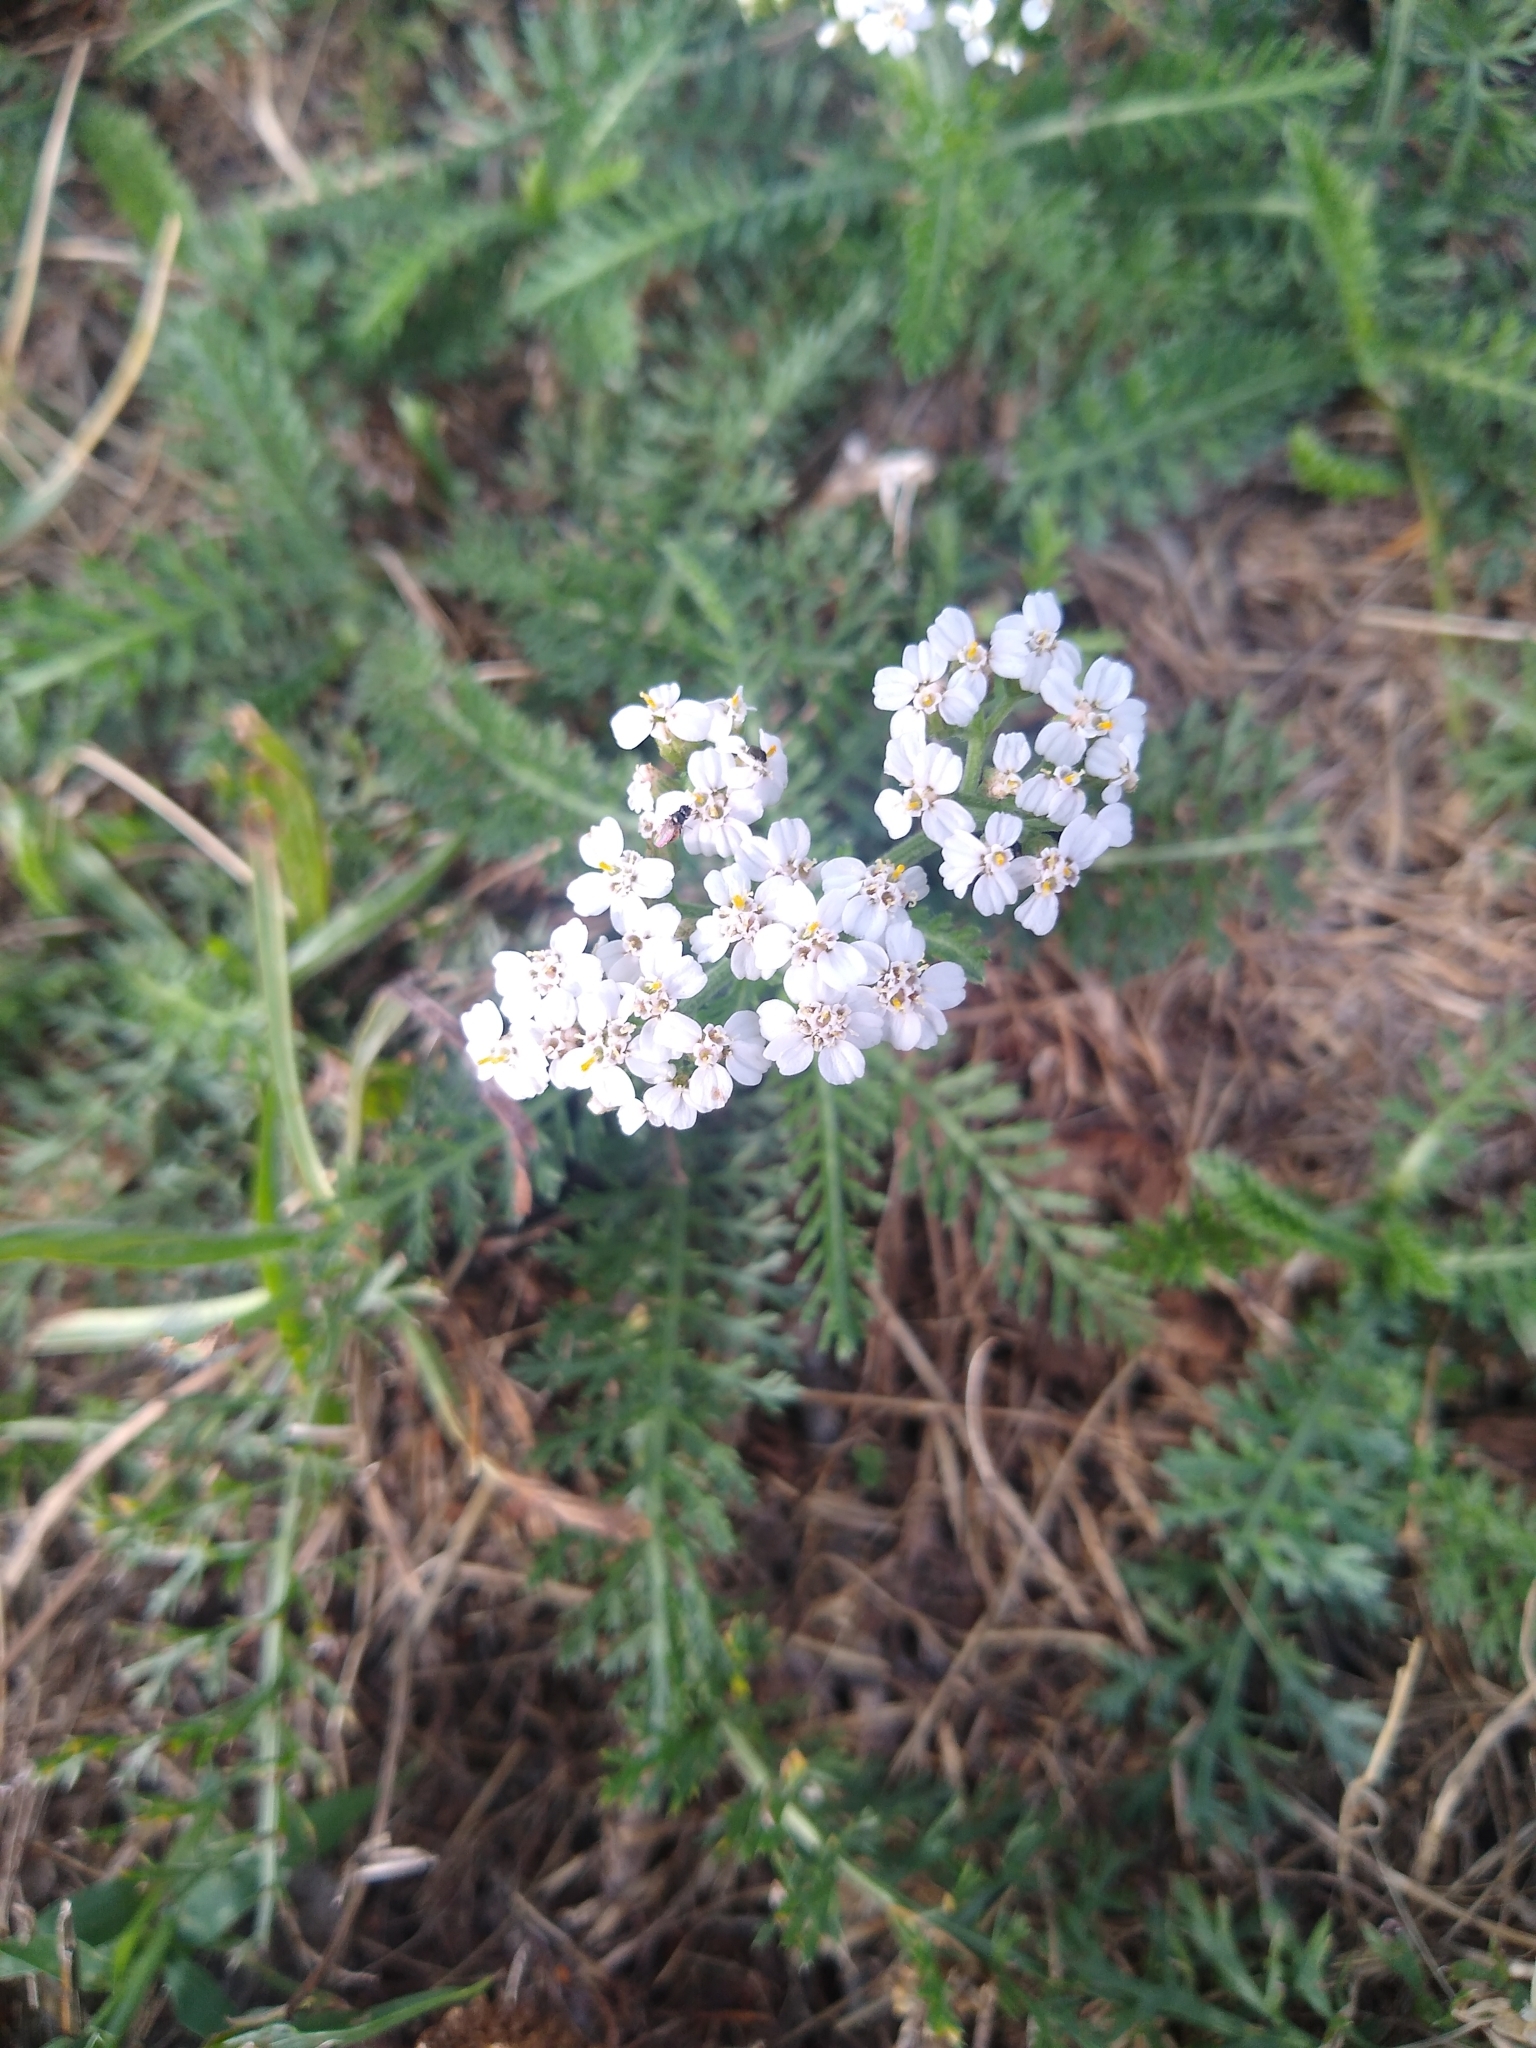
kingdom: Plantae
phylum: Tracheophyta
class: Magnoliopsida
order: Asterales
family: Asteraceae
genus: Achillea
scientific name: Achillea millefolium
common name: Yarrow
